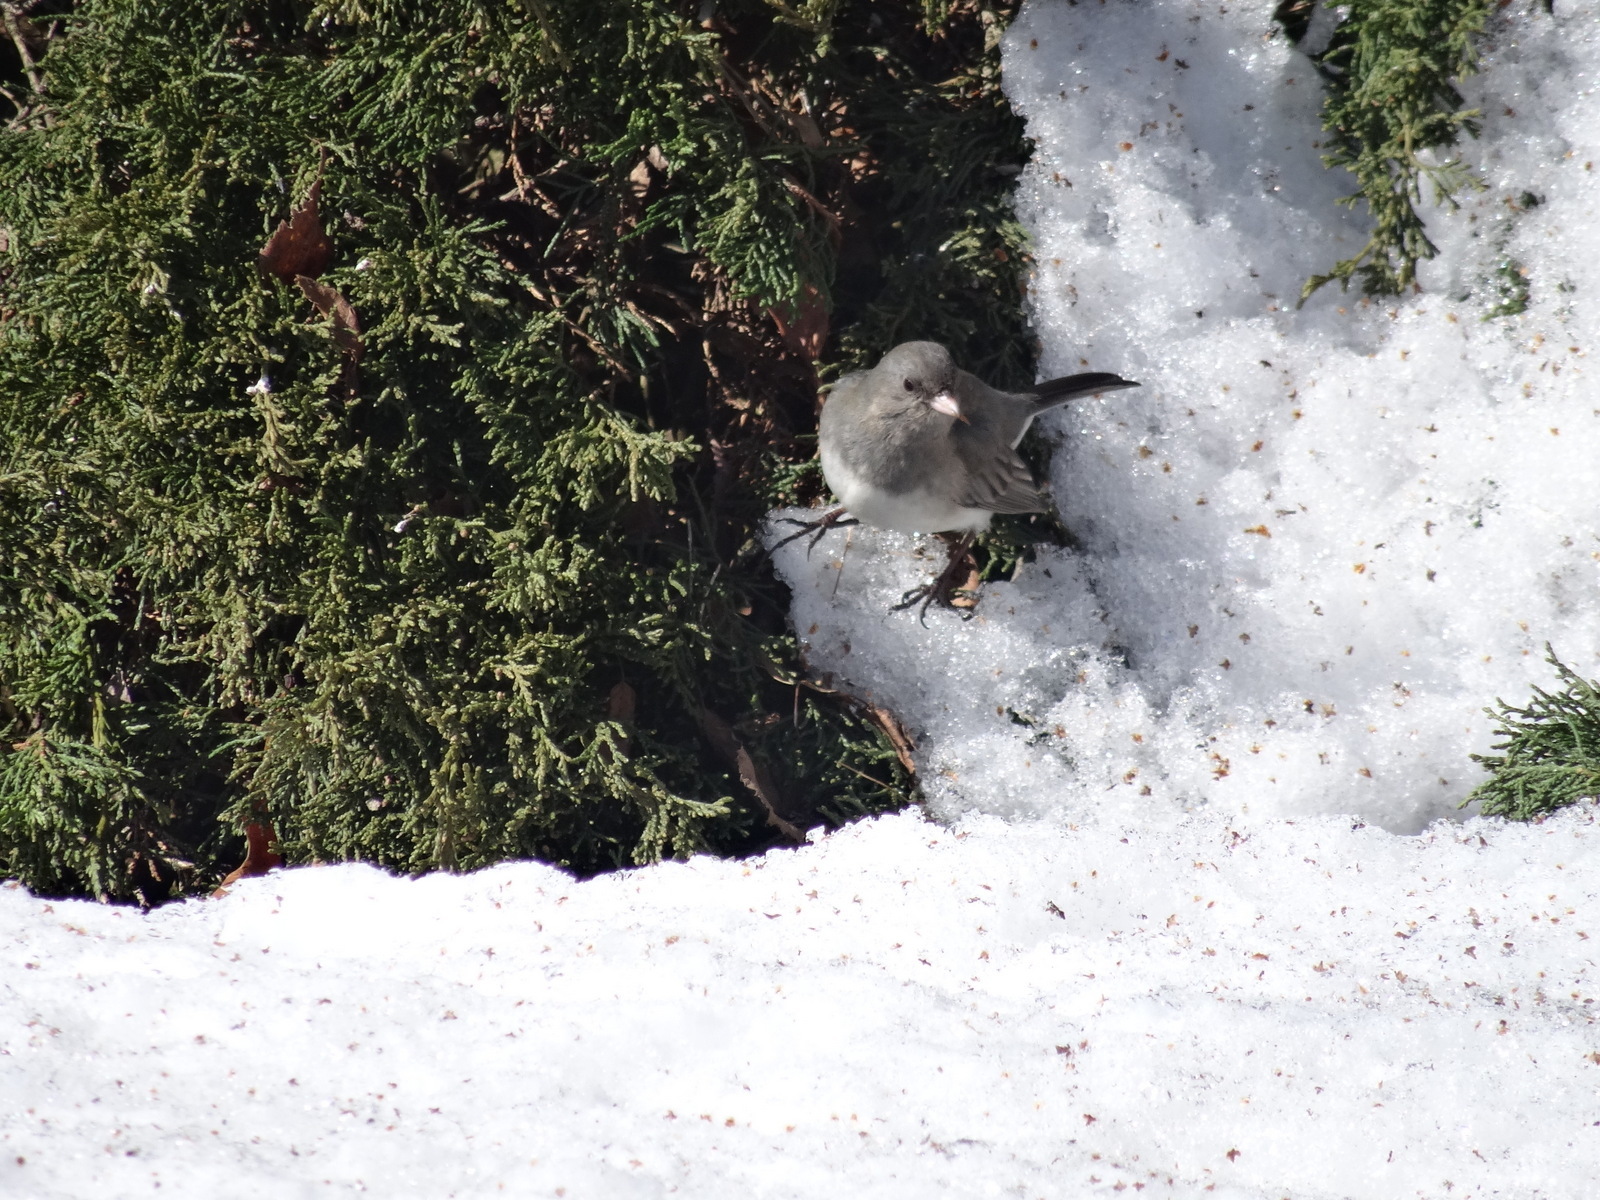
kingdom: Animalia
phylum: Chordata
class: Aves
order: Passeriformes
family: Passerellidae
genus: Junco
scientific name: Junco hyemalis
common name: Dark-eyed junco
